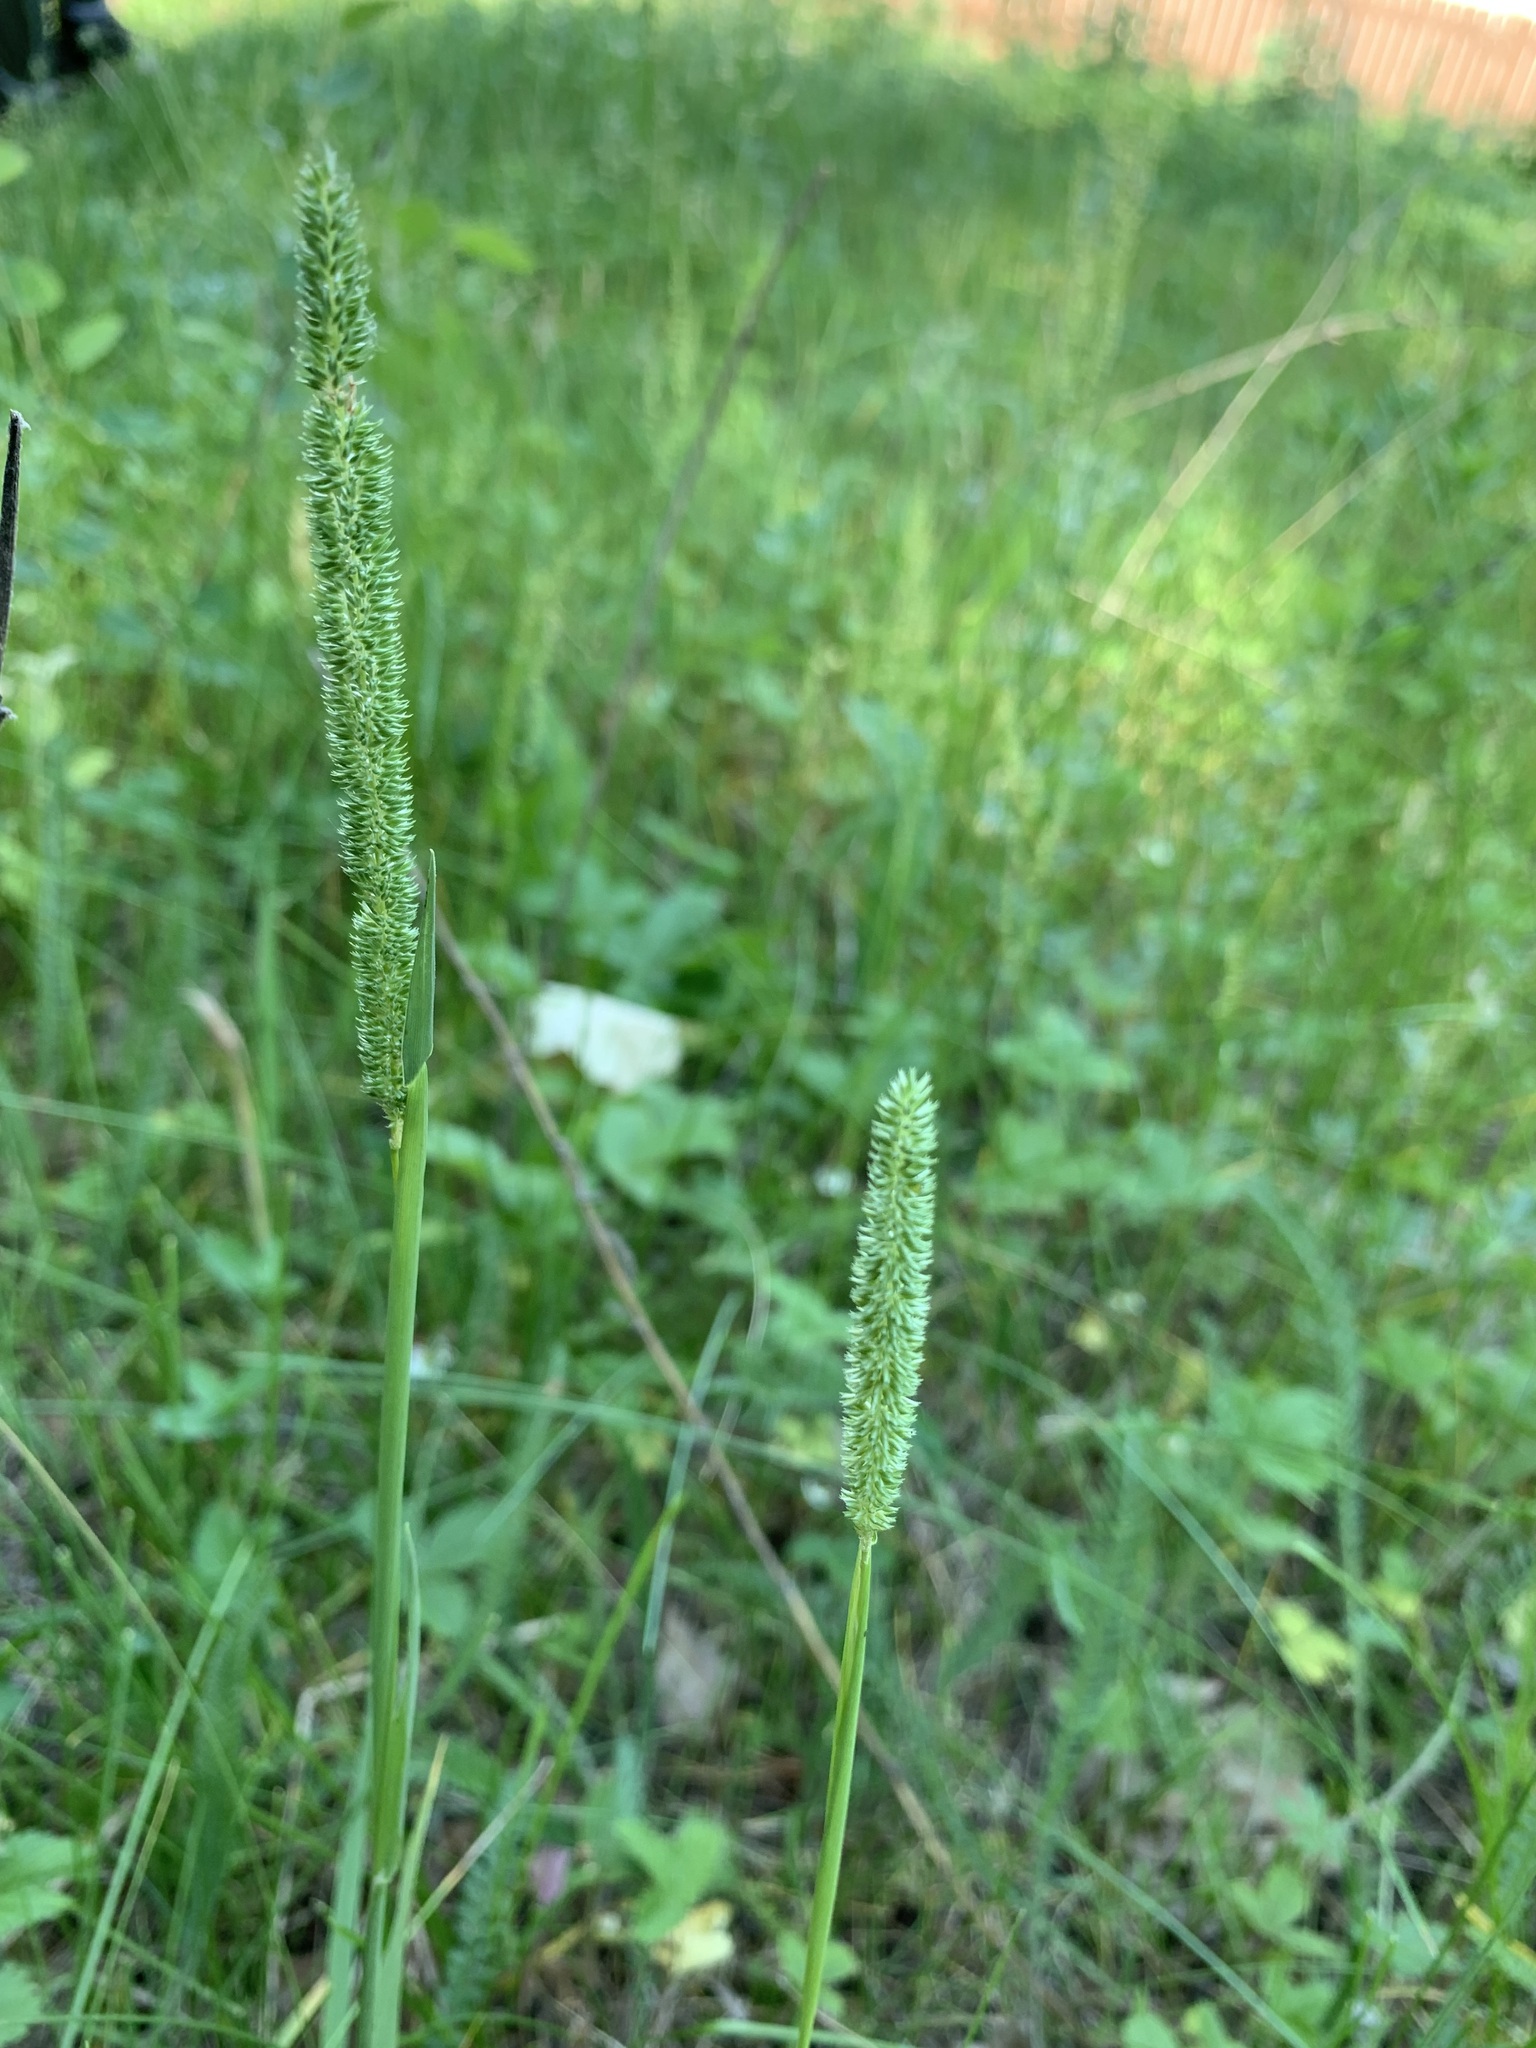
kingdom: Plantae
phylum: Tracheophyta
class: Liliopsida
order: Poales
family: Poaceae
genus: Phleum
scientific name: Phleum phleoides
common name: Purple-stem cat's-tail
